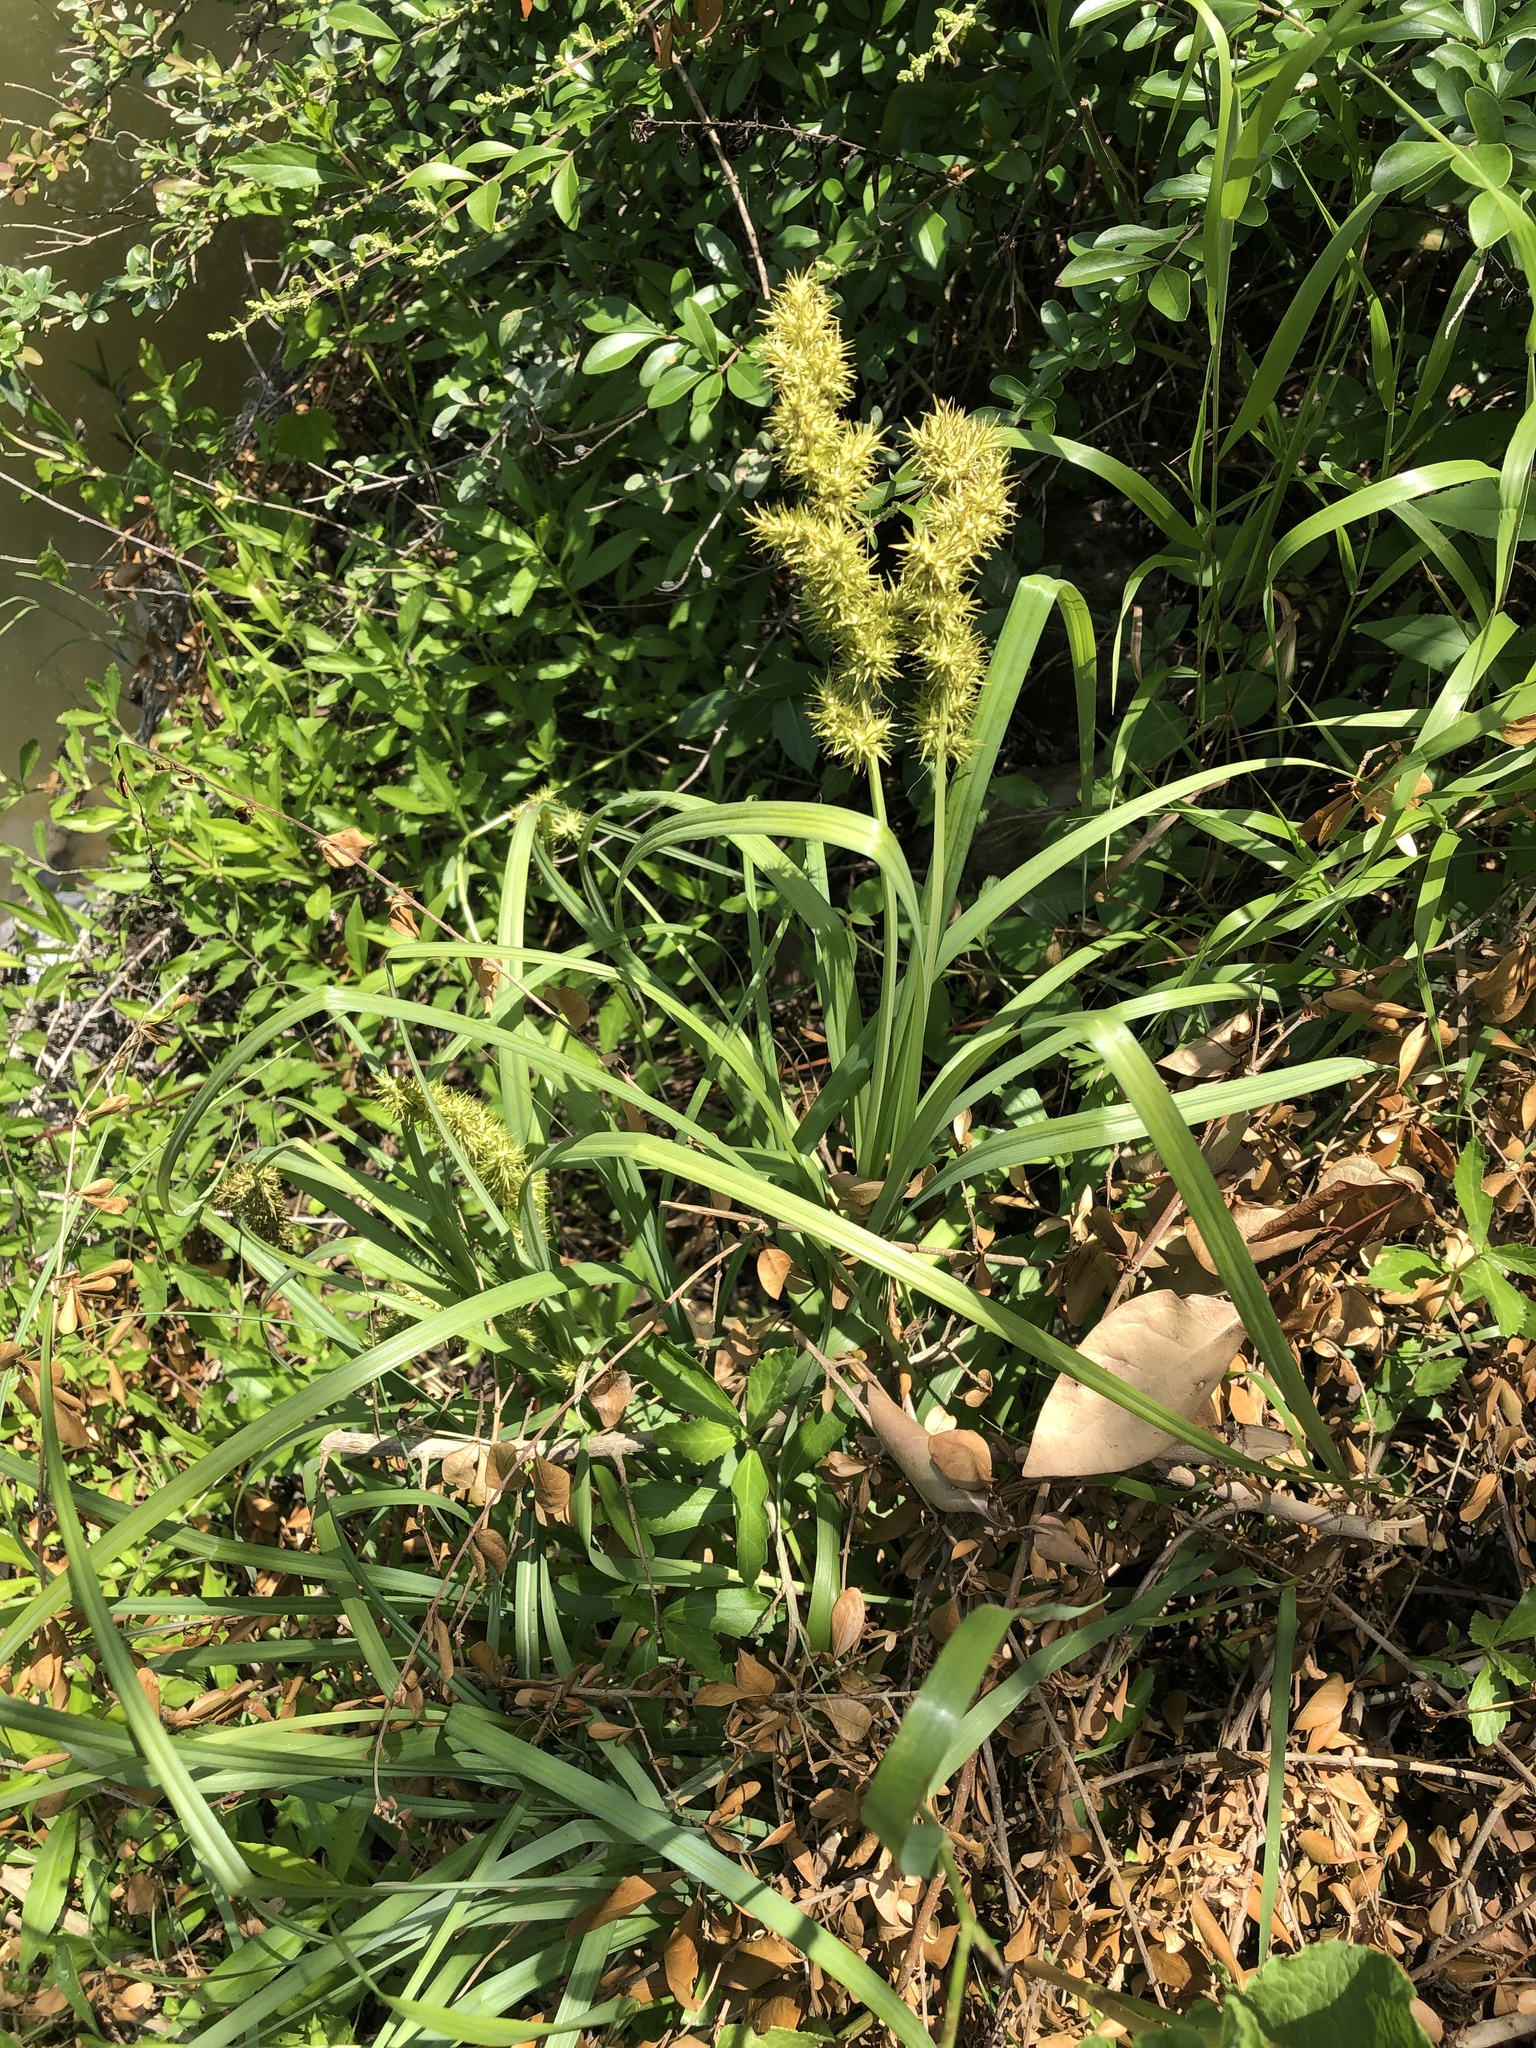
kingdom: Plantae
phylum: Tracheophyta
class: Liliopsida
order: Poales
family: Cyperaceae
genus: Carex
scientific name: Carex crus-corvi
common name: Crow-spur sedge
